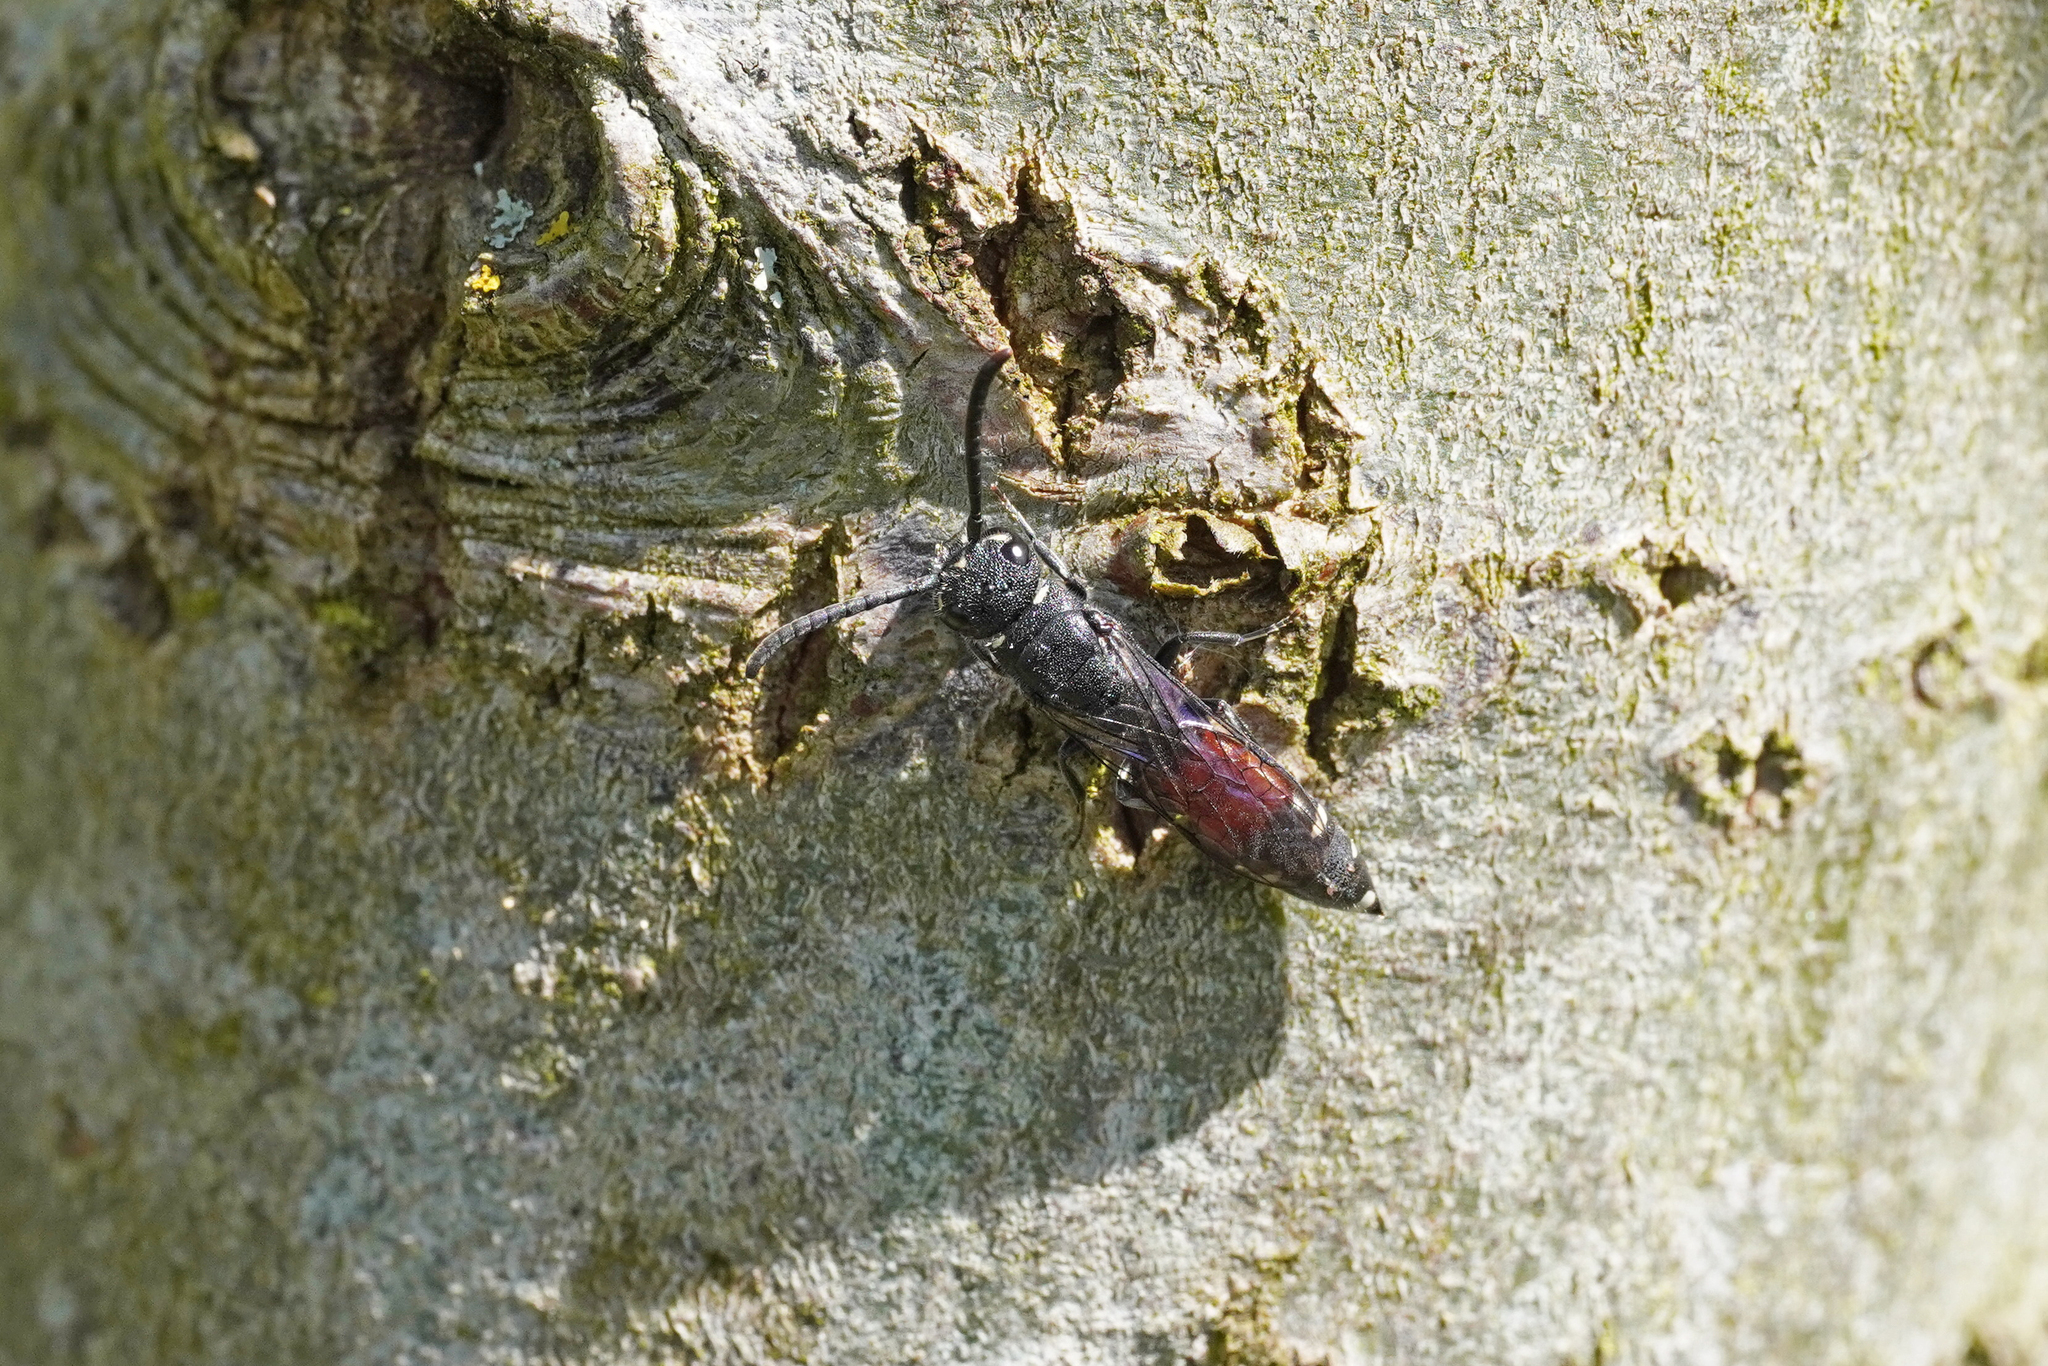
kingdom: Animalia
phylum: Arthropoda
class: Insecta
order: Hymenoptera
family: Sapygidae
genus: Sapyga
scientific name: Sapyga quinquepunctata
